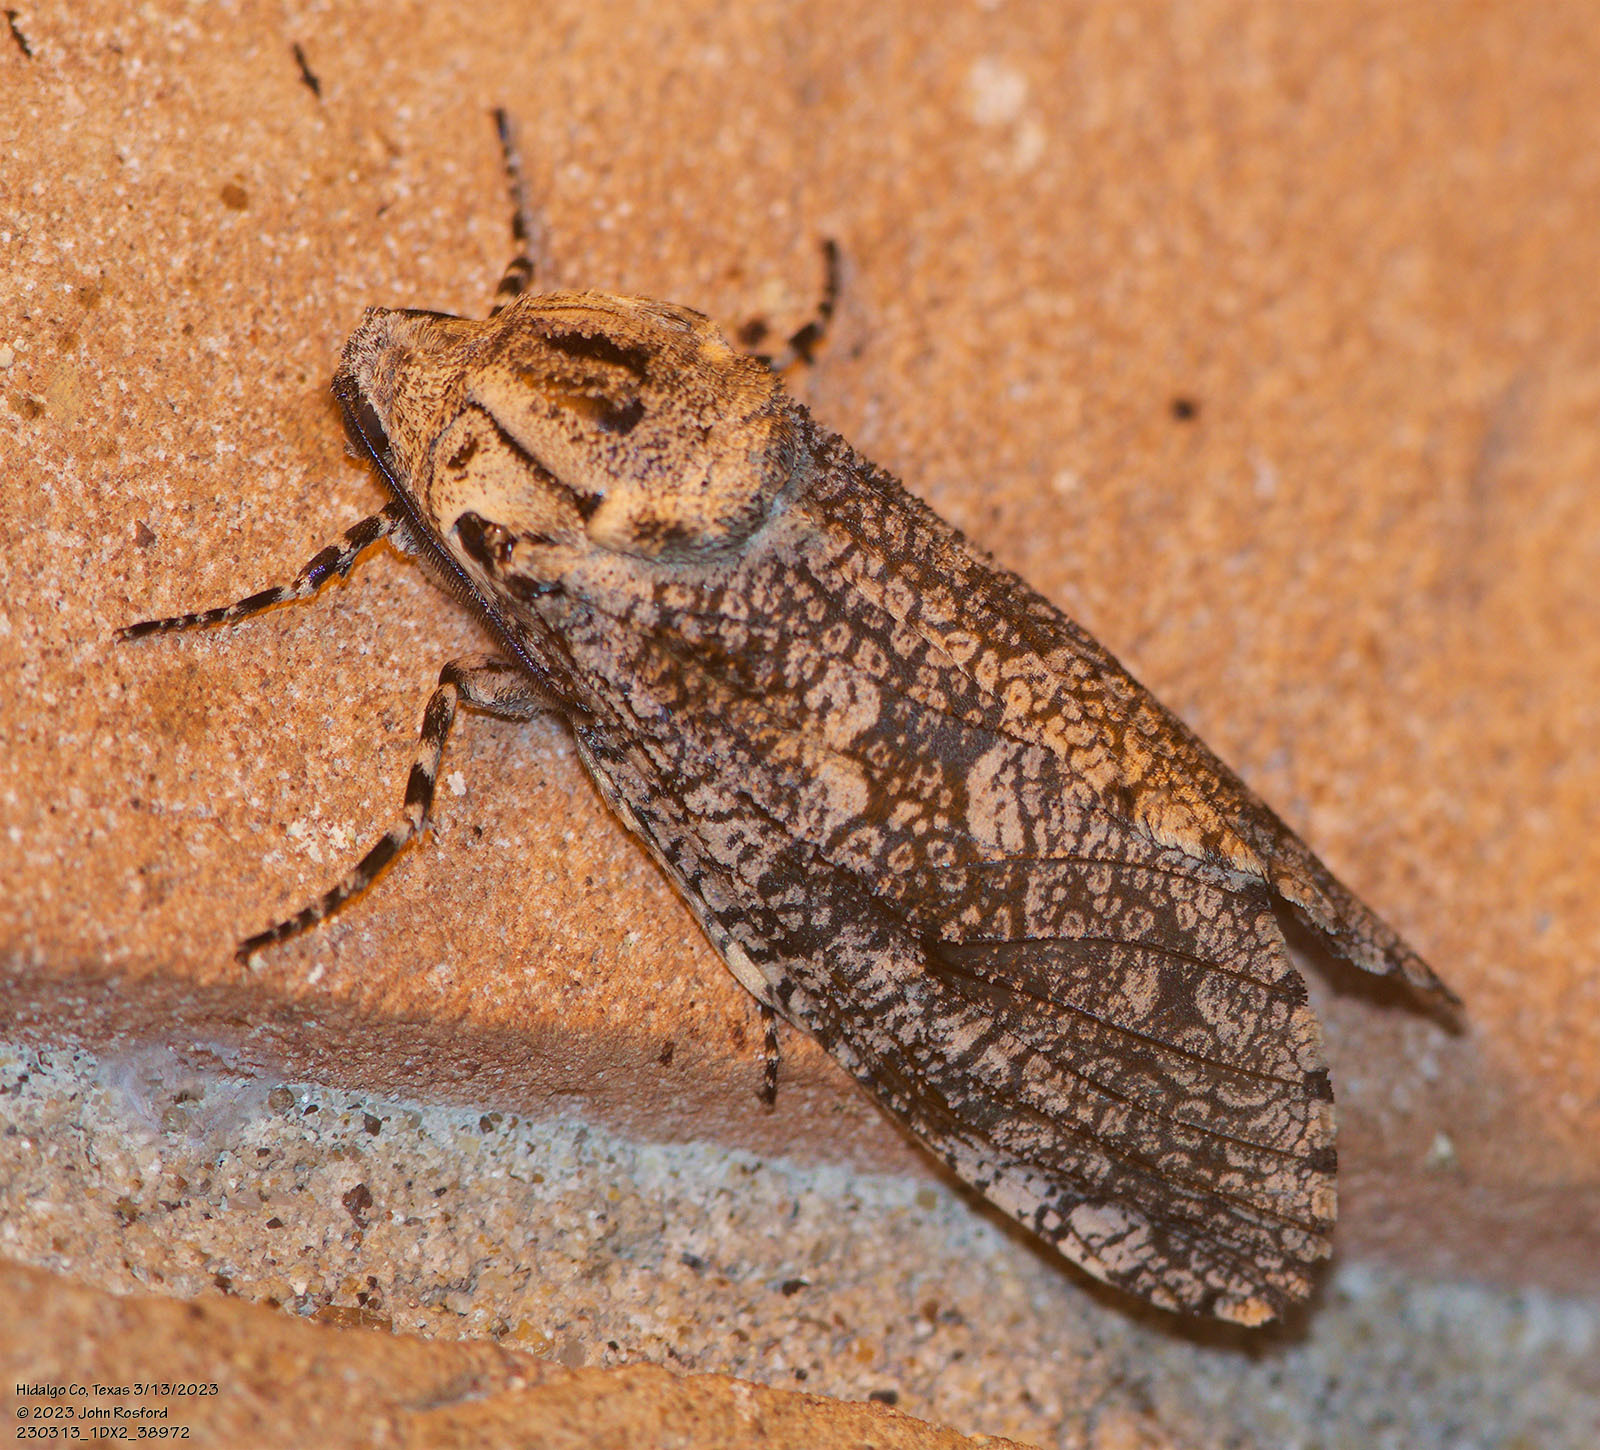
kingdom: Animalia
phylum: Arthropoda
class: Insecta
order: Lepidoptera
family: Cossidae
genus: Prionoxystus
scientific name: Prionoxystus robiniae
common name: Carpenterworm
